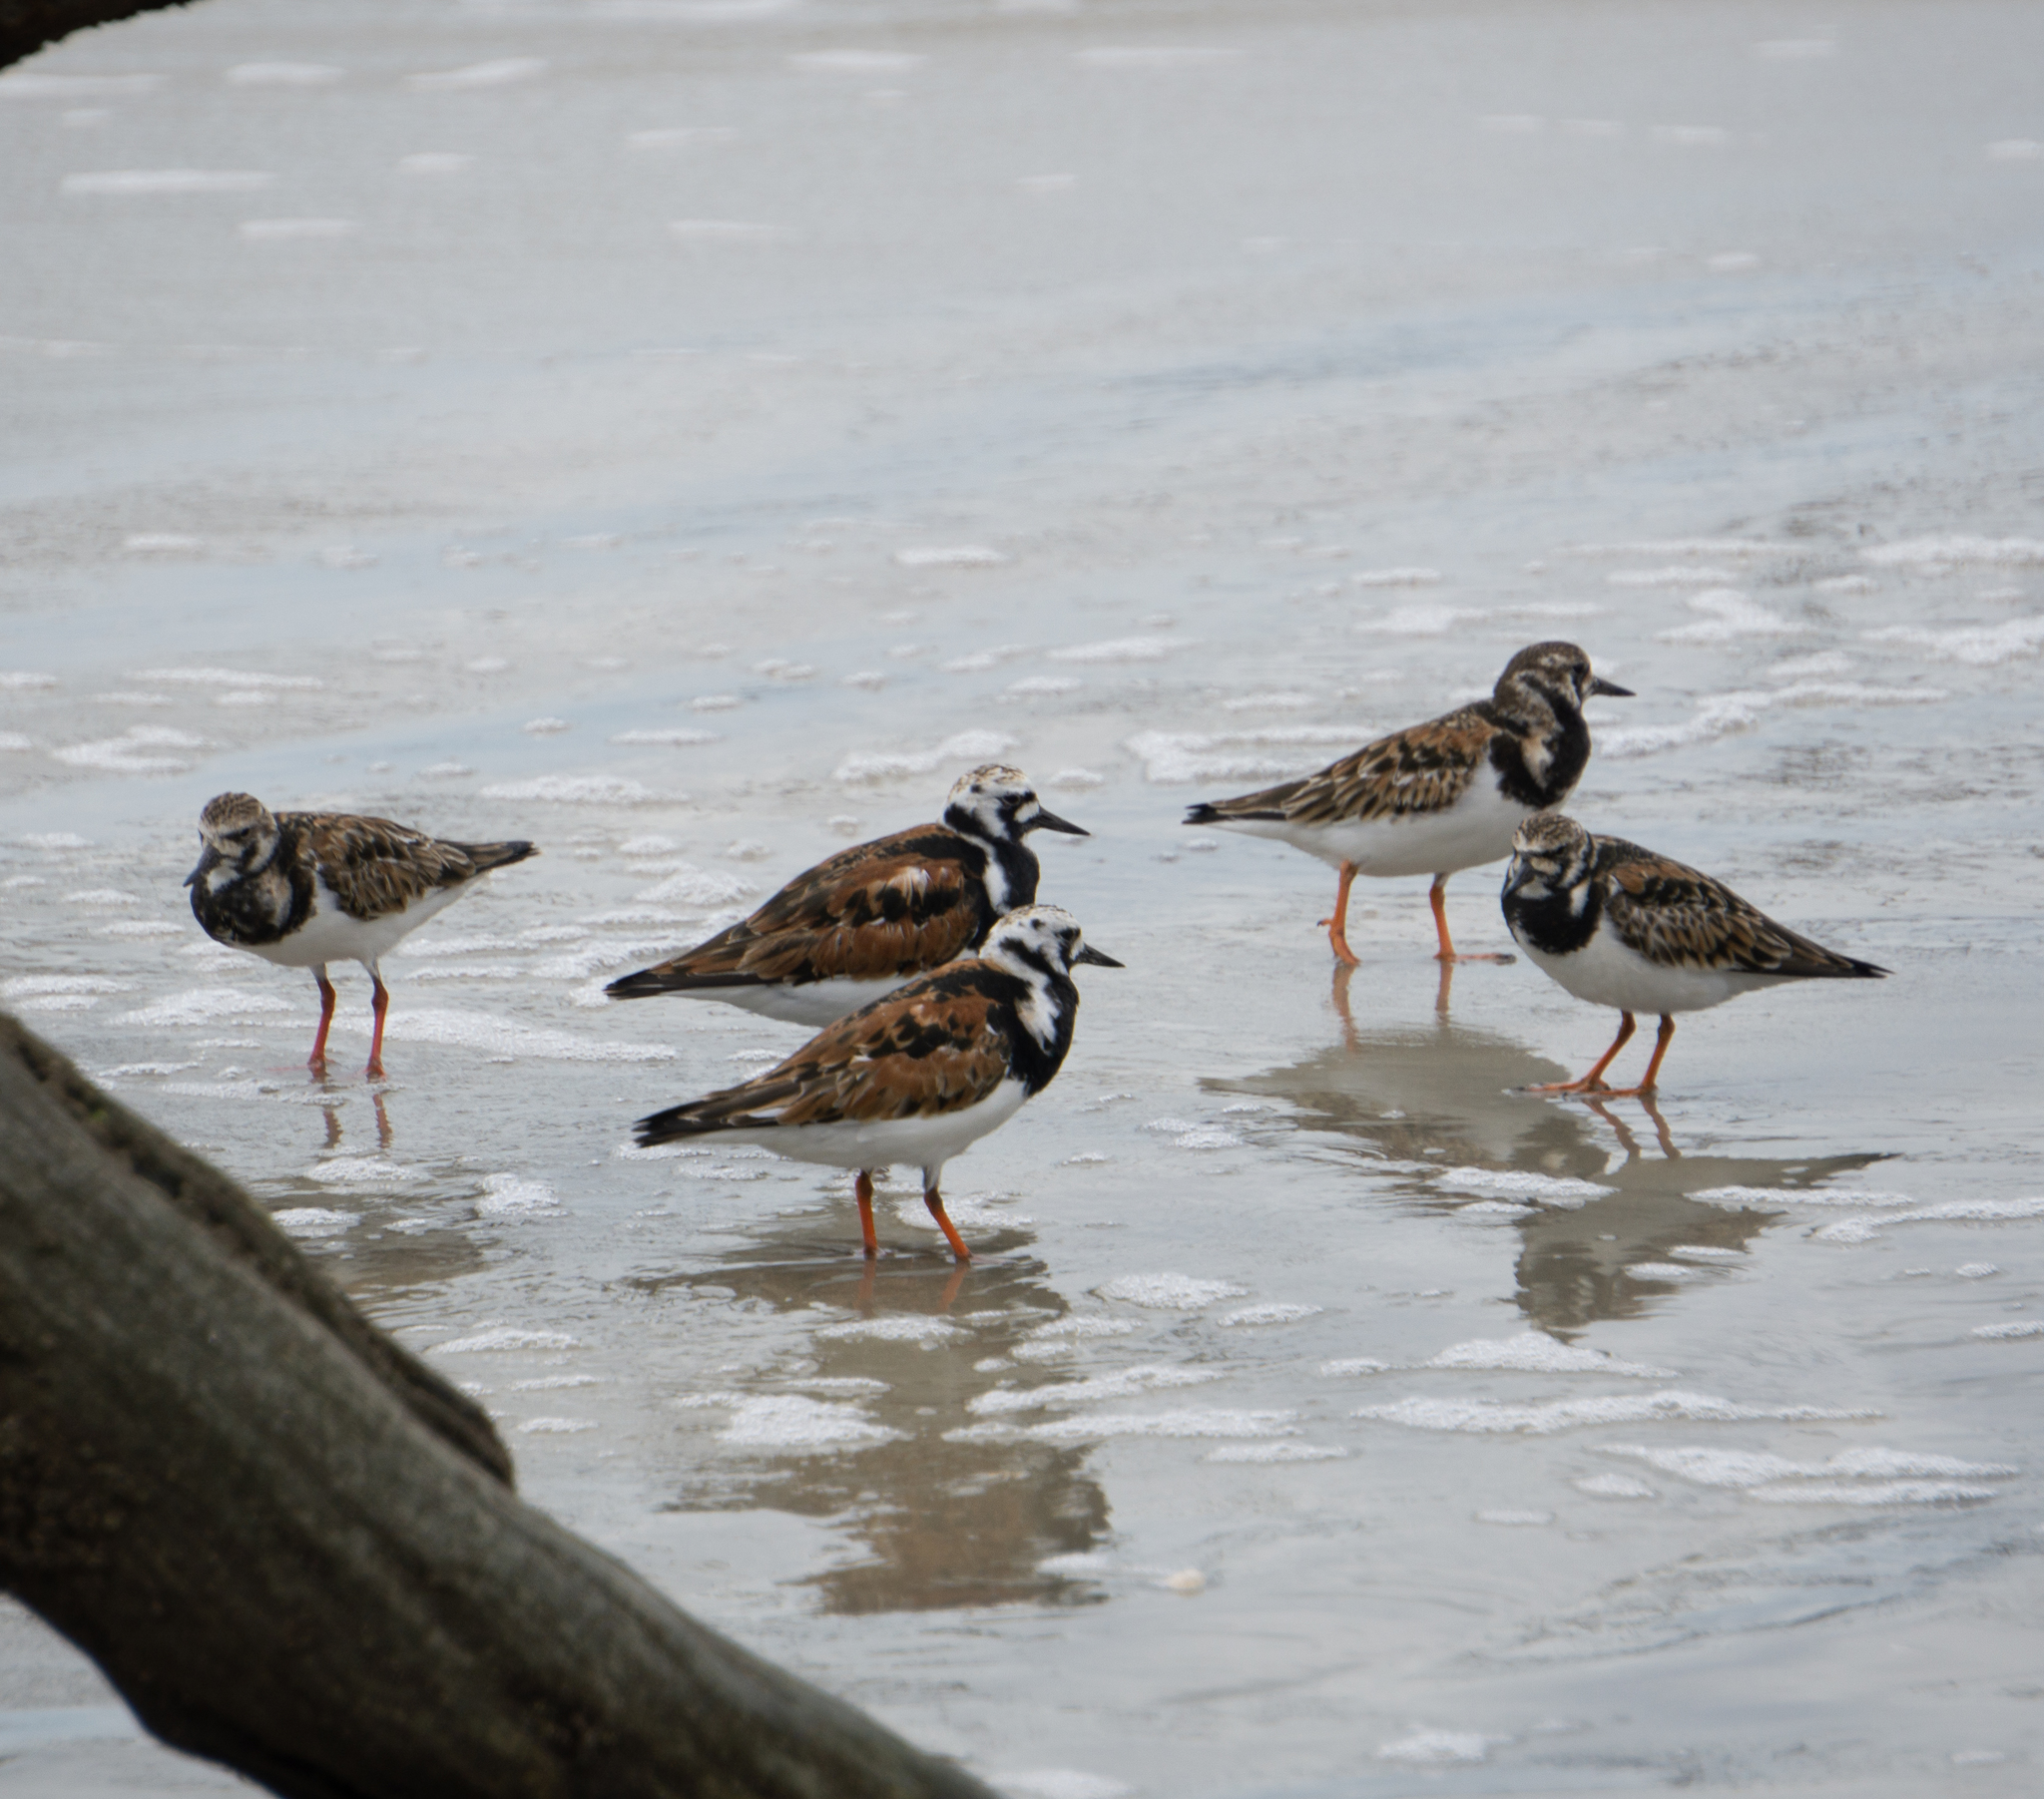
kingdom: Animalia
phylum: Chordata
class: Aves
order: Charadriiformes
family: Scolopacidae
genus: Arenaria
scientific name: Arenaria interpres
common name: Ruddy turnstone
